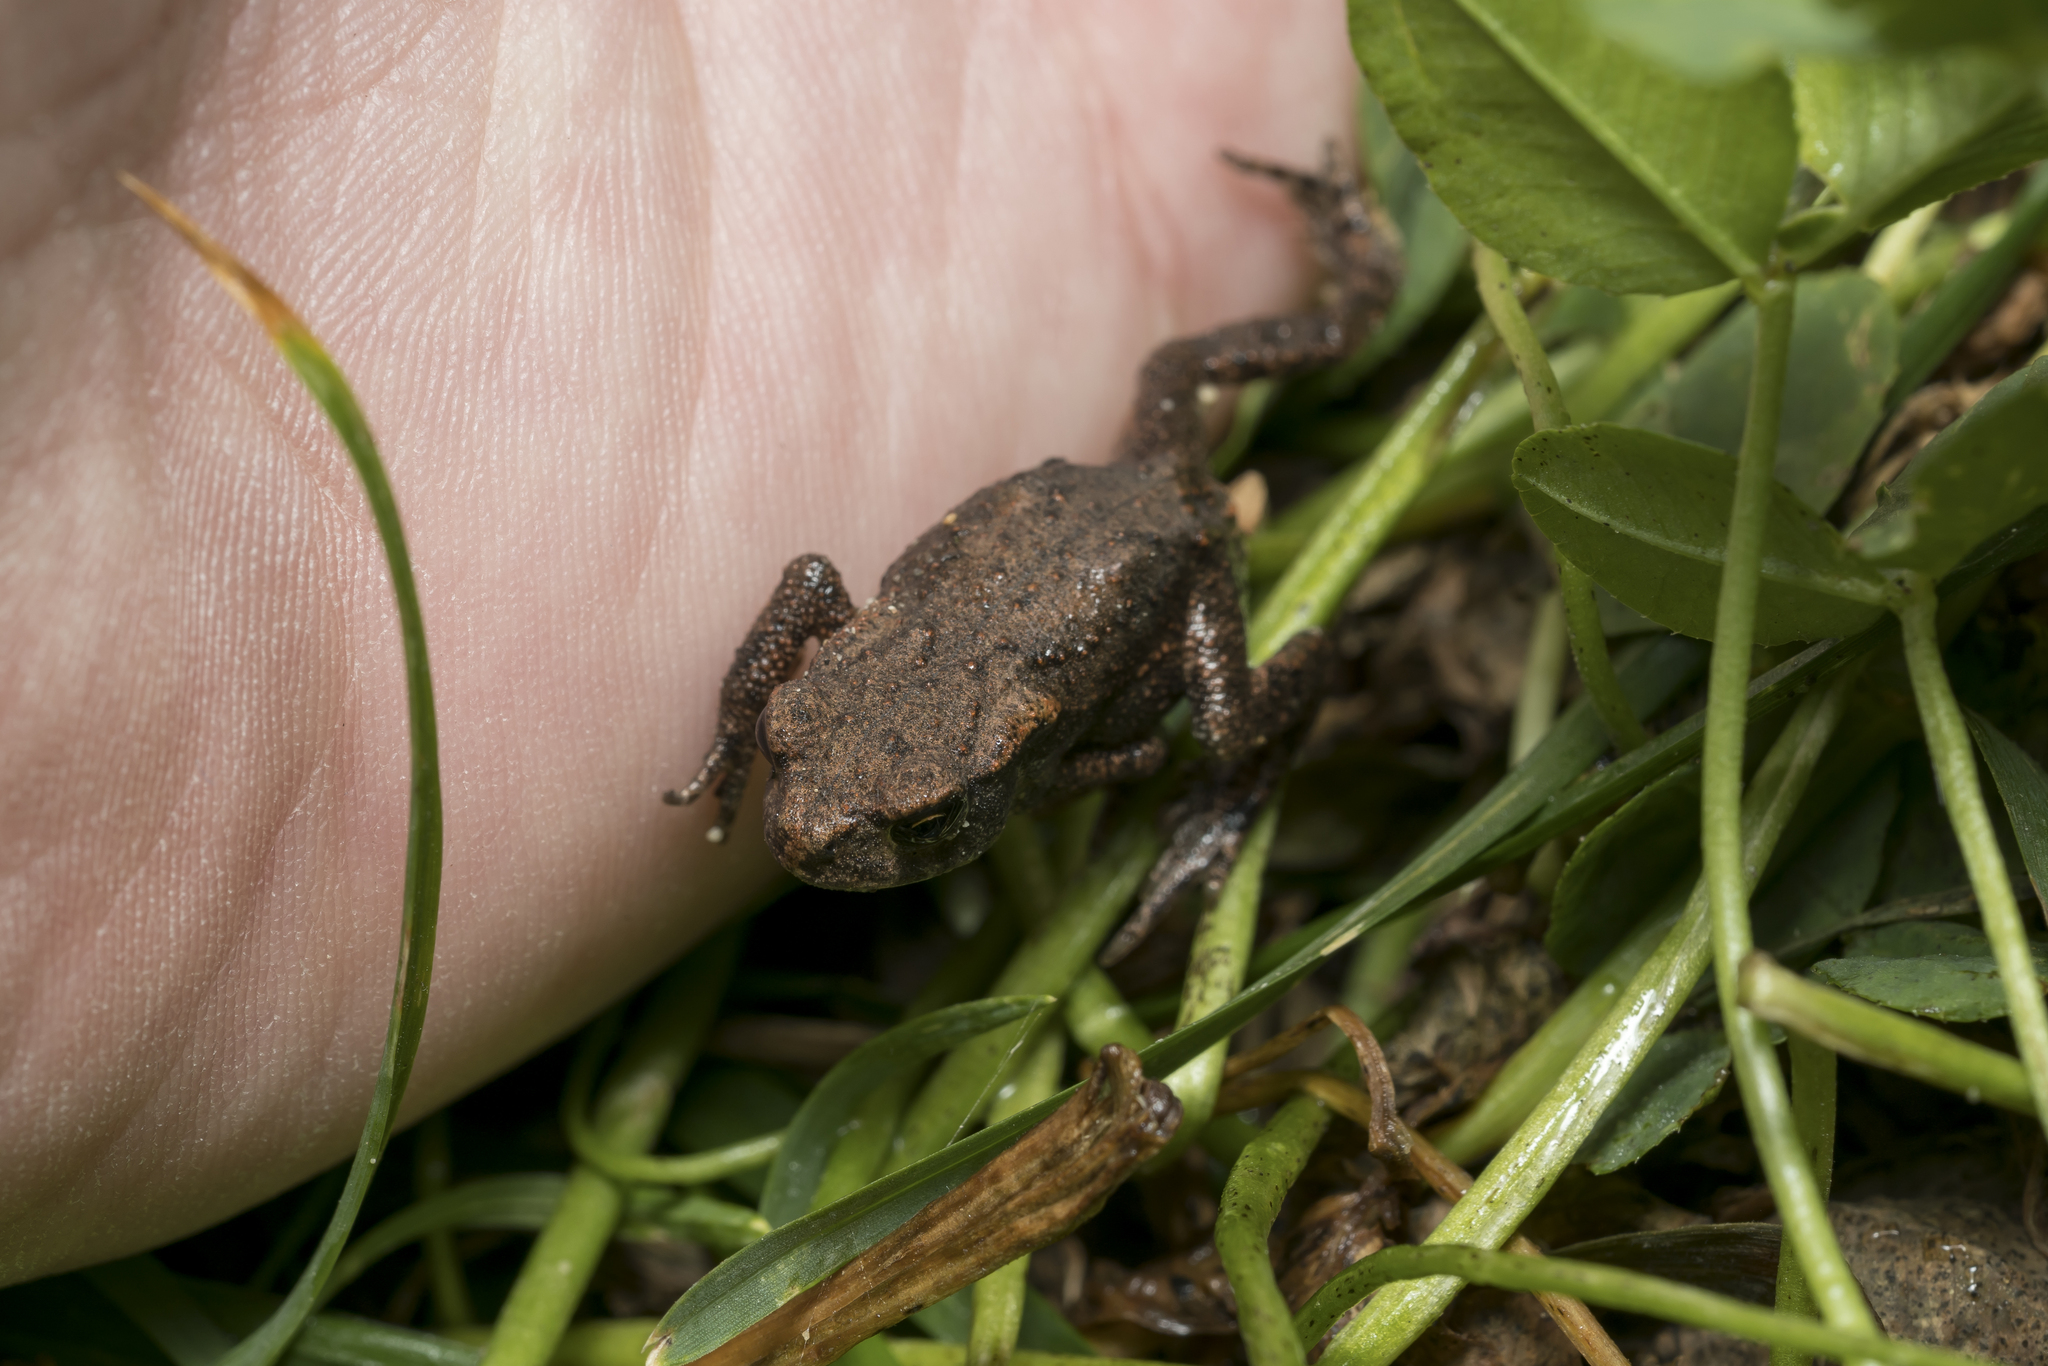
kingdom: Animalia
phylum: Chordata
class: Amphibia
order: Anura
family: Bufonidae
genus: Bufo
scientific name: Bufo bufo
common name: Common toad
